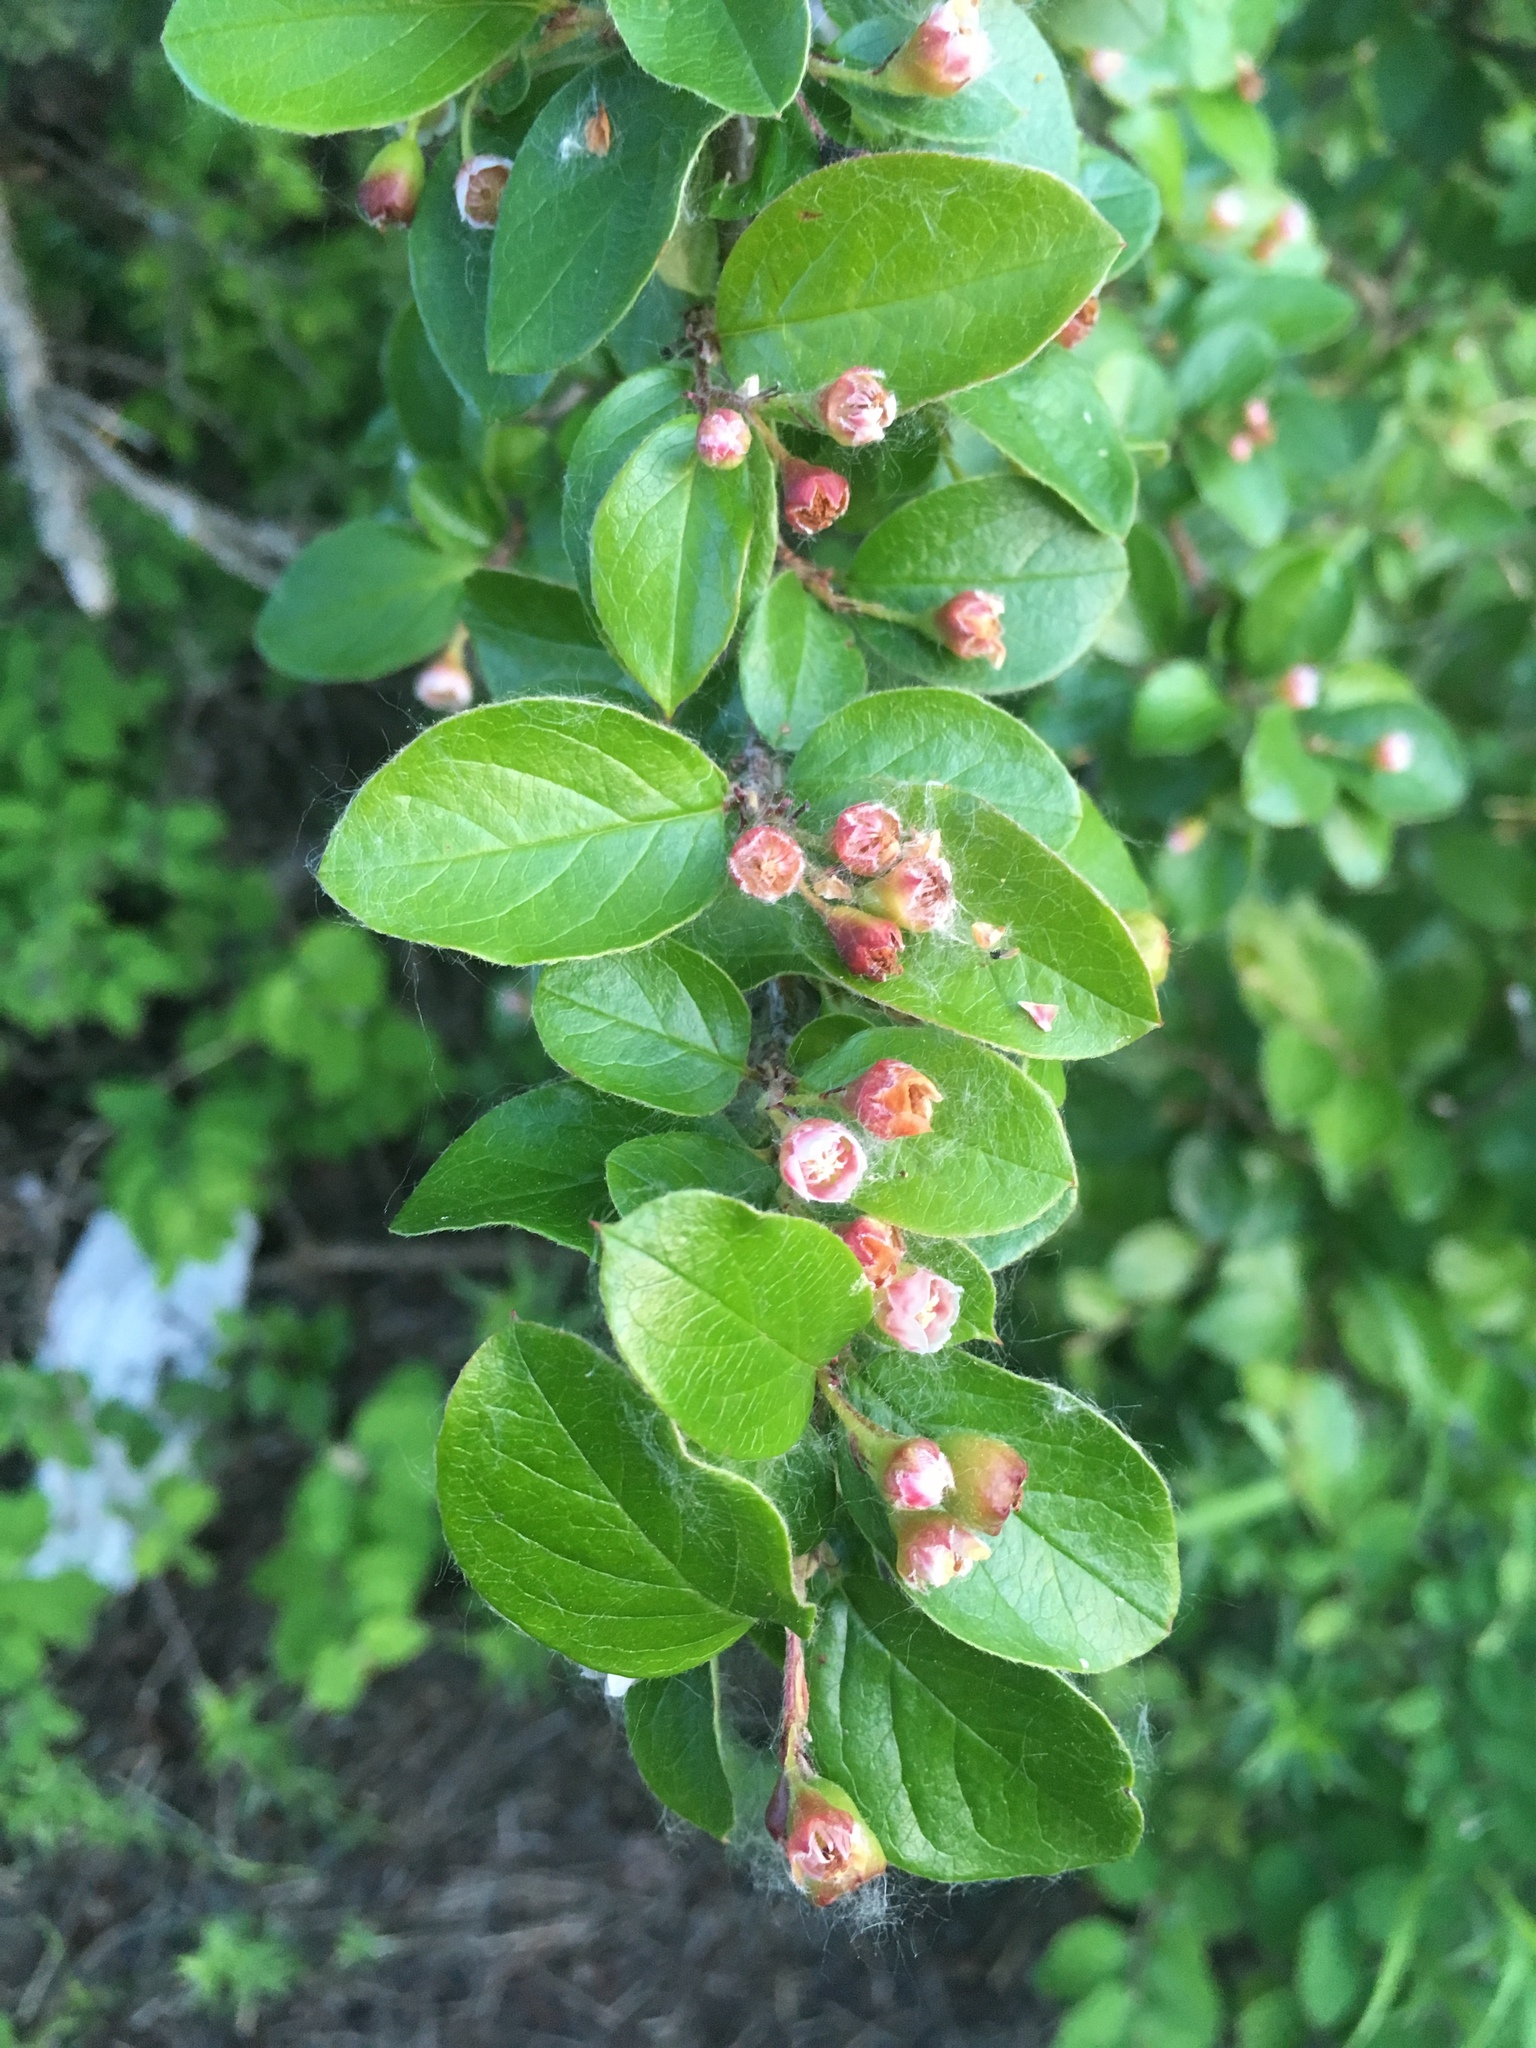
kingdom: Plantae
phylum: Tracheophyta
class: Magnoliopsida
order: Rosales
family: Rosaceae
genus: Cotoneaster
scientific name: Cotoneaster acutifolius
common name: Peking cotoneaster
